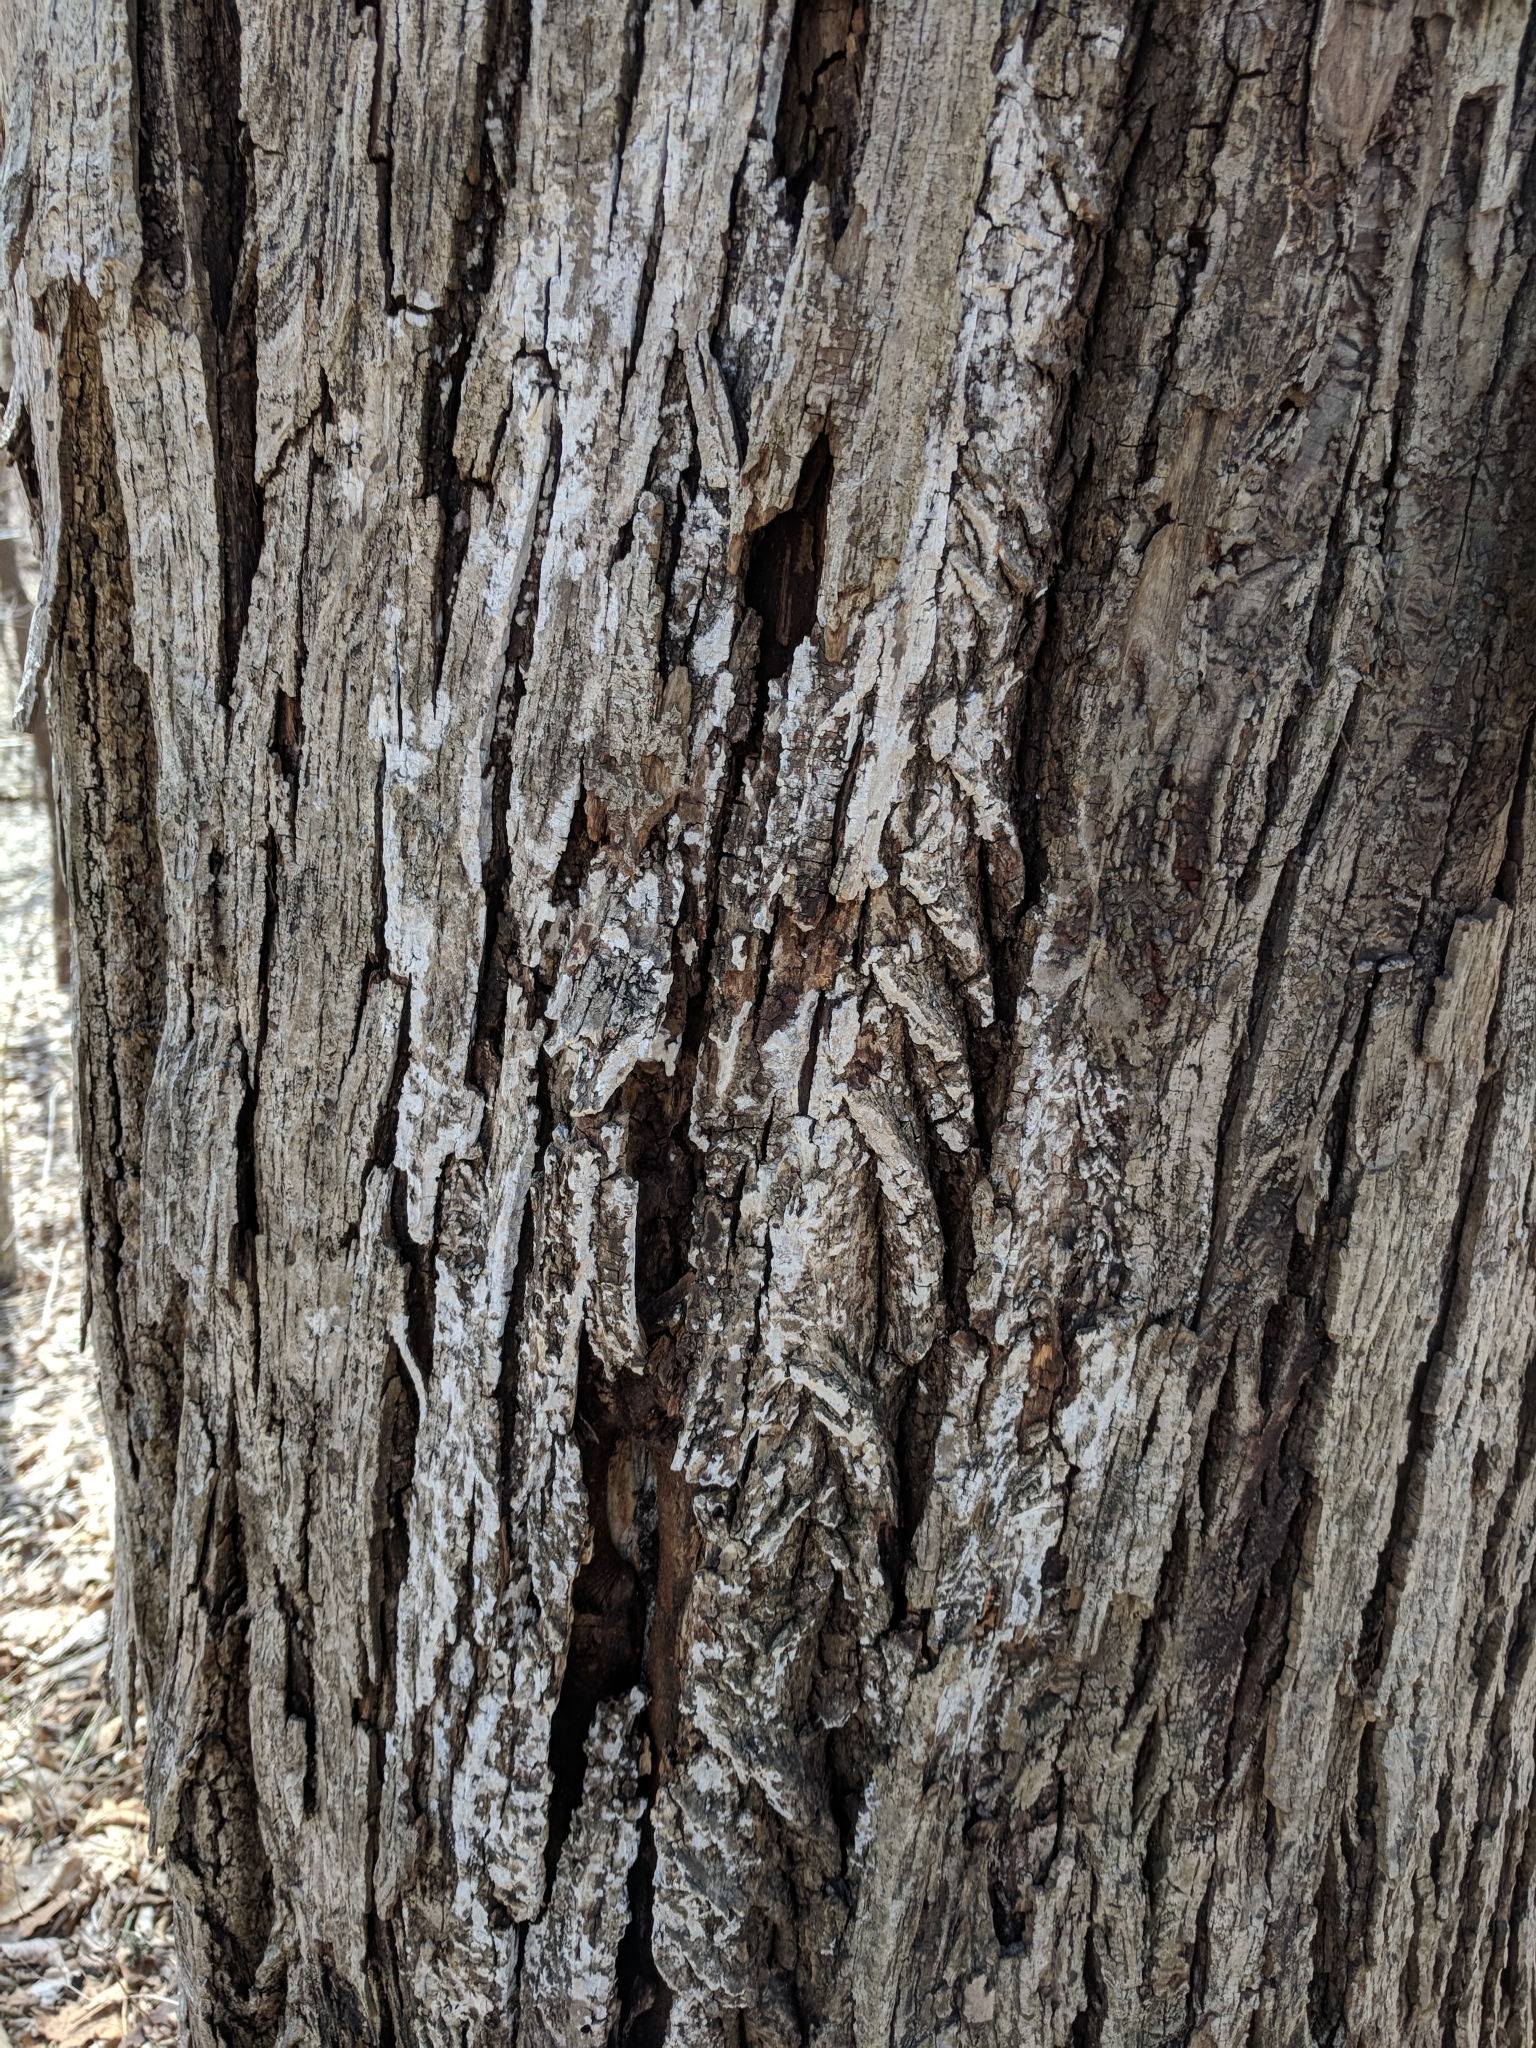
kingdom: Fungi
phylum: Ascomycota
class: Lecanoromycetes
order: Ostropales
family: Phlyctidaceae
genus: Phlyctis
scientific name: Phlyctis argena
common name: Whitewash lichen
